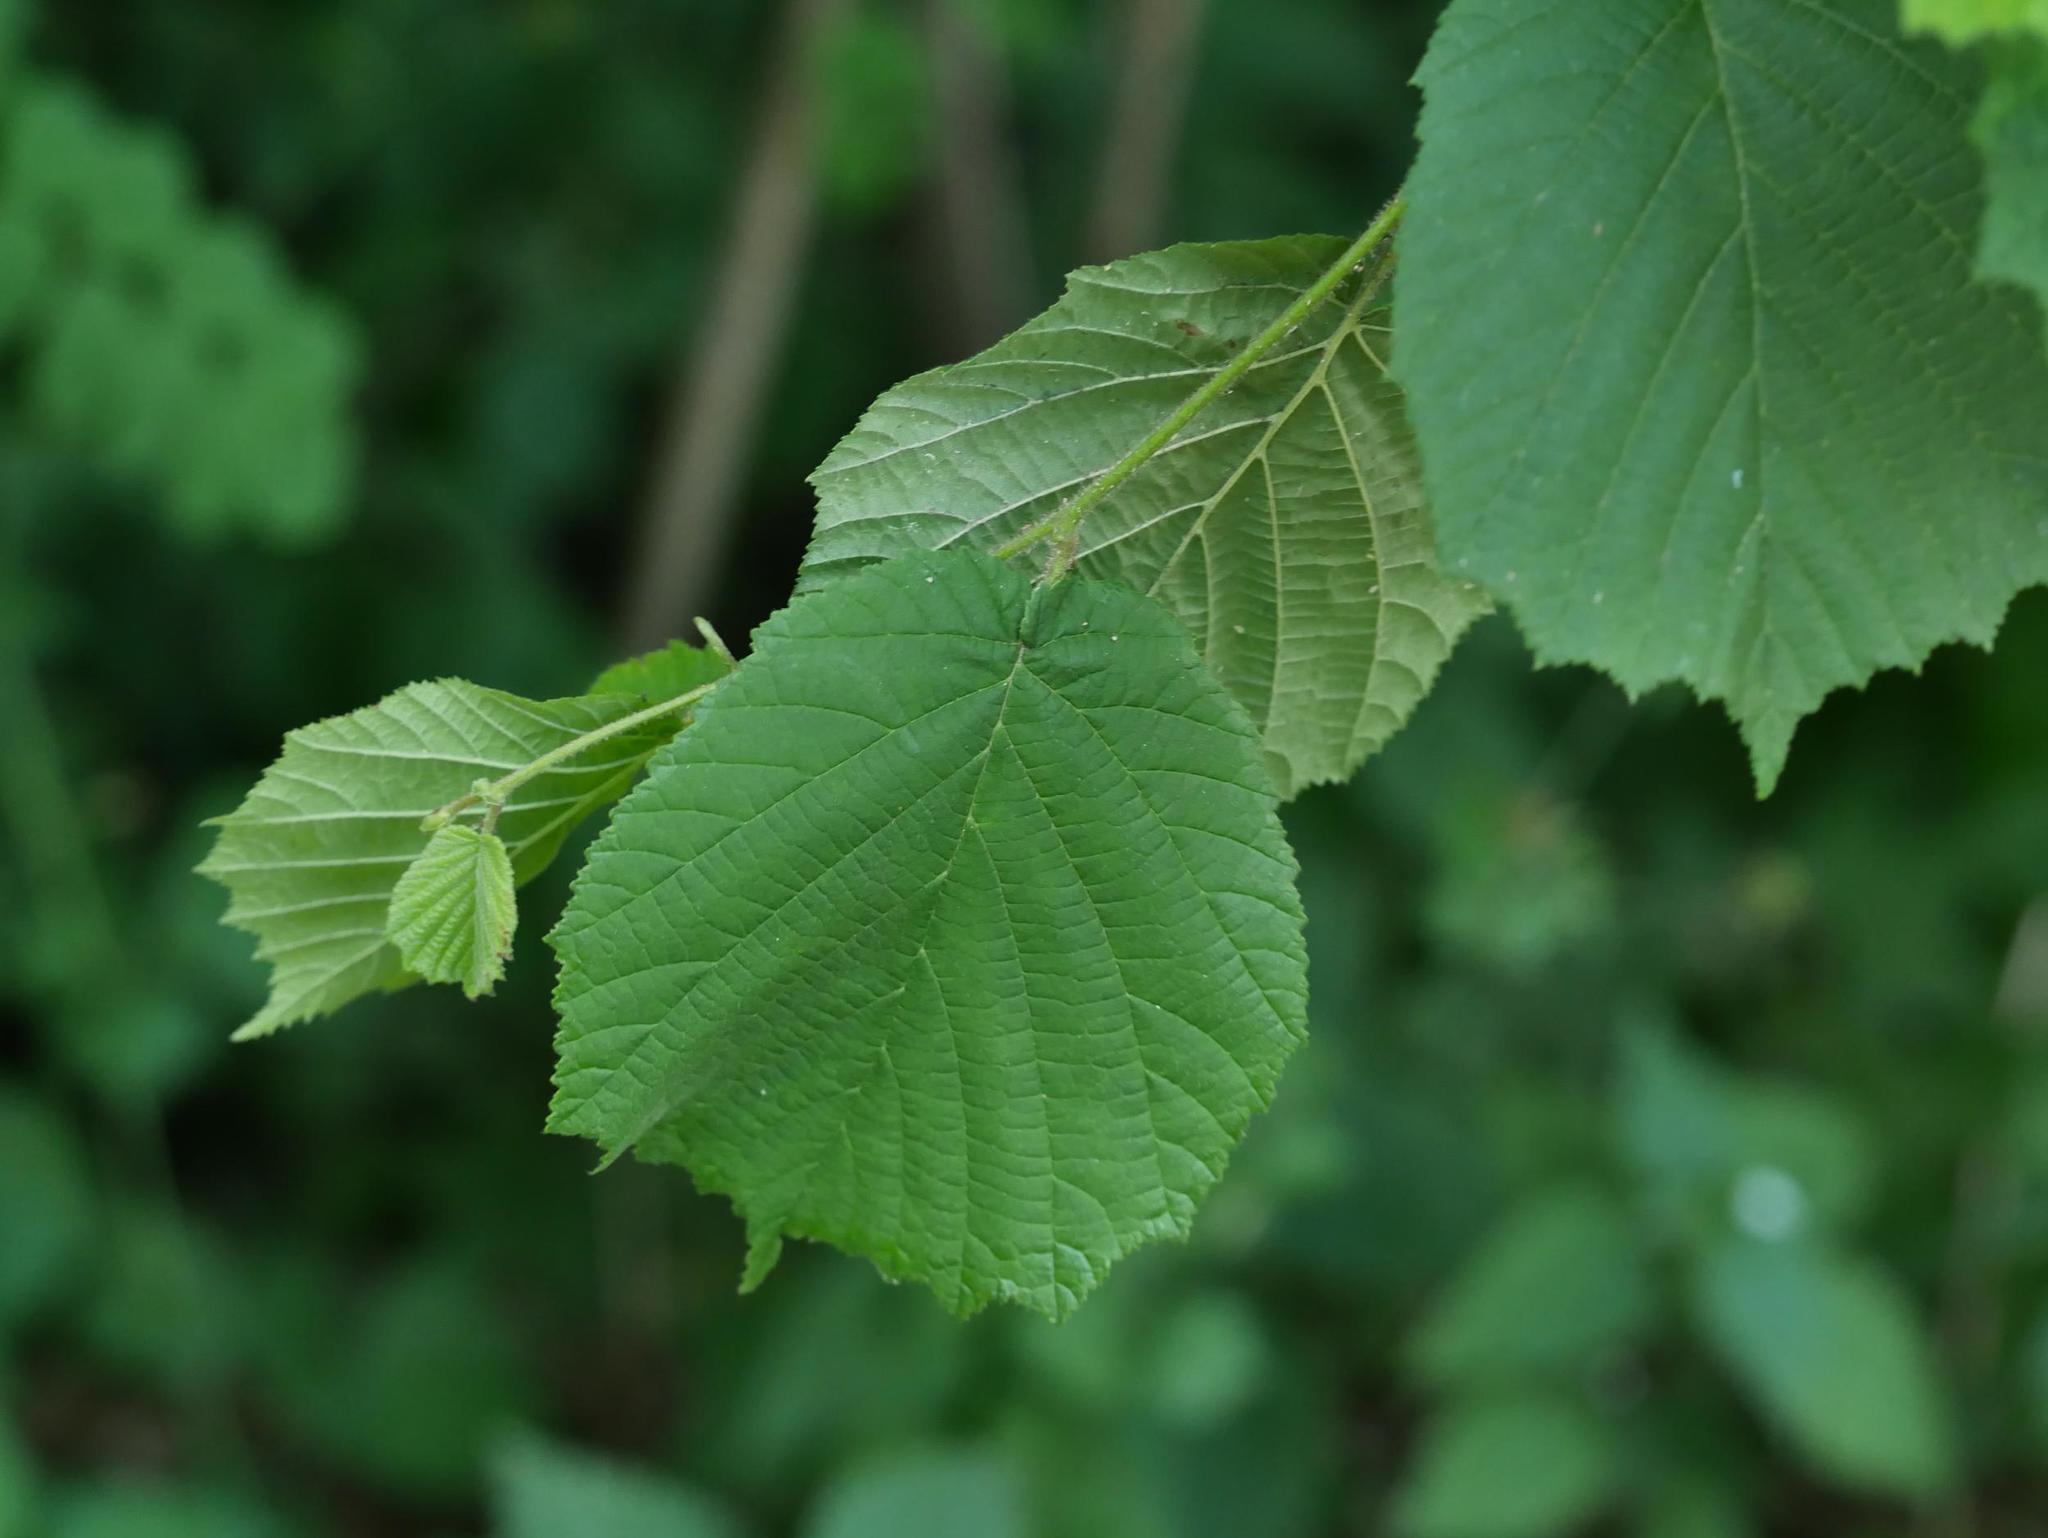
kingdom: Plantae
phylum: Tracheophyta
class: Magnoliopsida
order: Fagales
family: Betulaceae
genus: Corylus
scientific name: Corylus avellana
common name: European hazel
